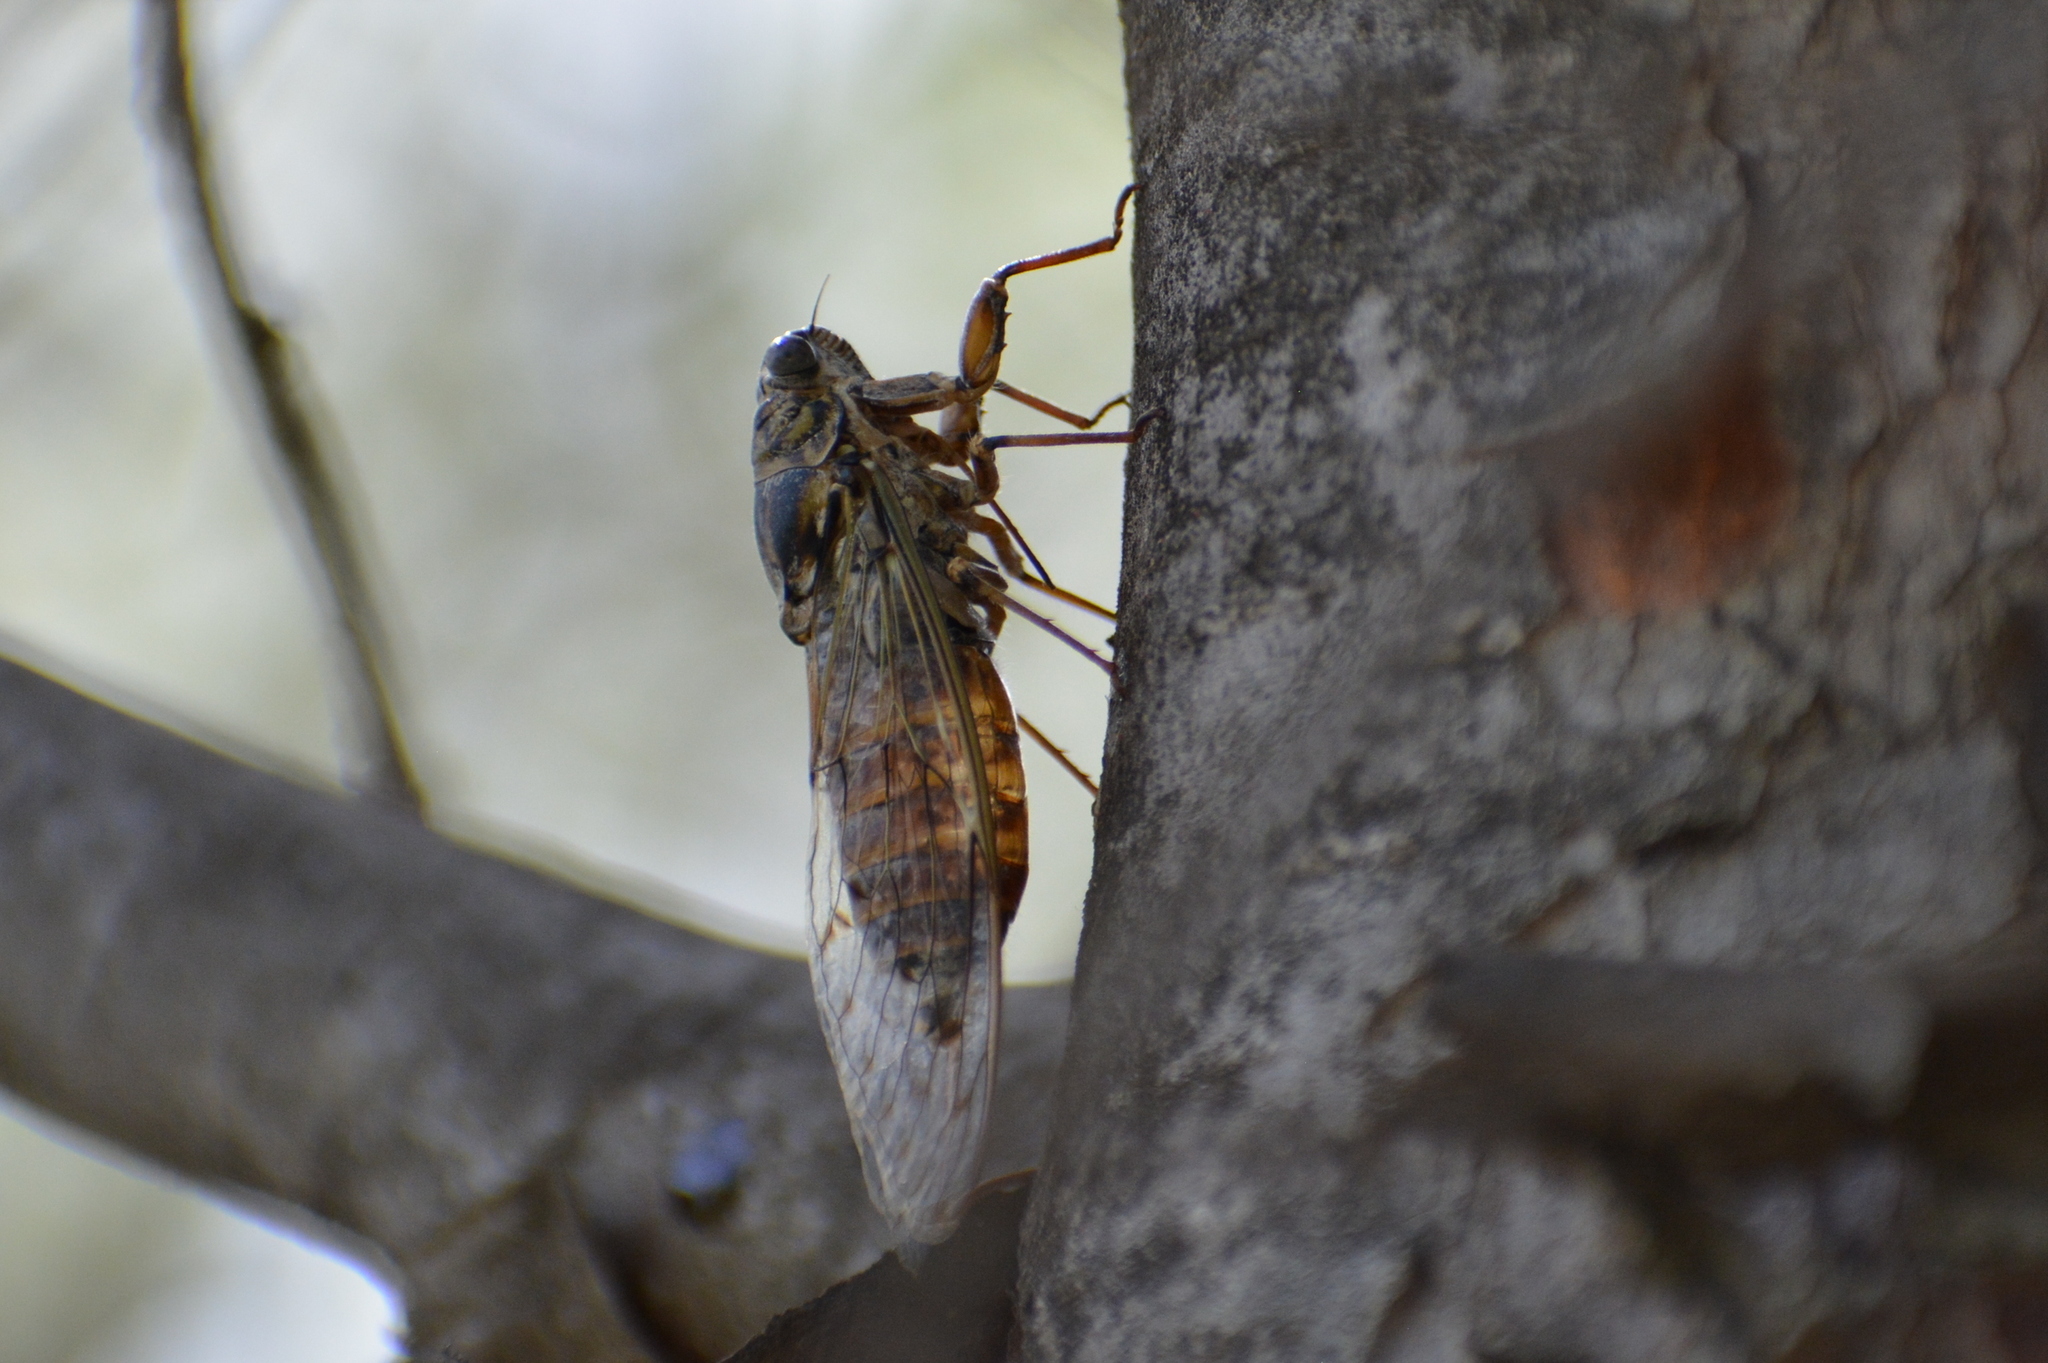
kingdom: Animalia
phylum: Arthropoda
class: Insecta
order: Hemiptera
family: Cicadidae
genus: Cicada
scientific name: Cicada orni
